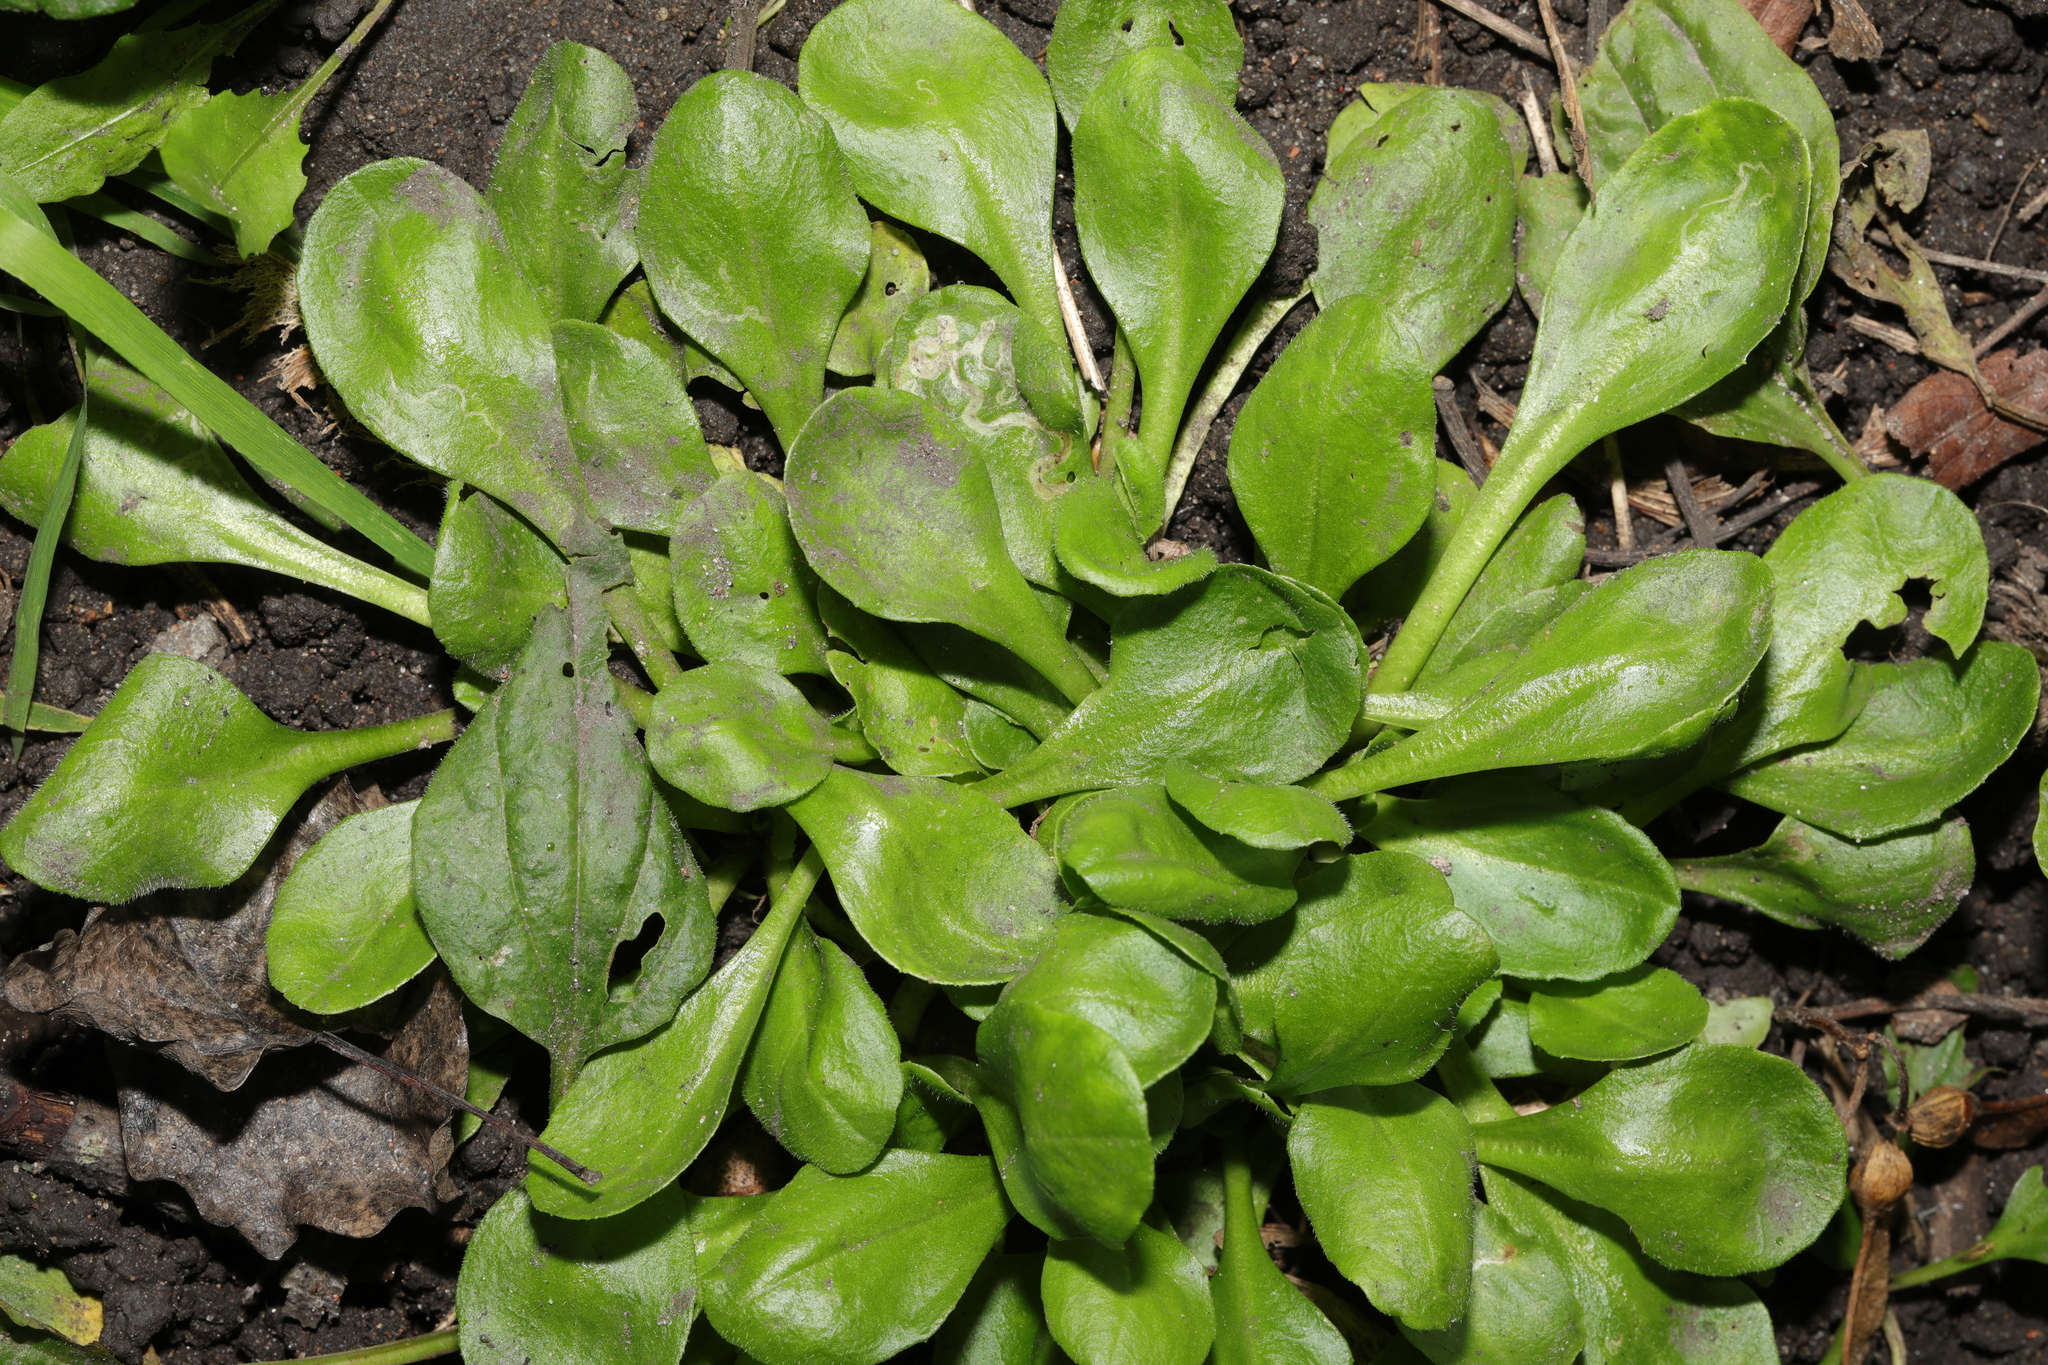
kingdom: Plantae
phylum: Tracheophyta
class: Magnoliopsida
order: Asterales
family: Asteraceae
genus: Bellis
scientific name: Bellis perennis
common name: Lawndaisy
